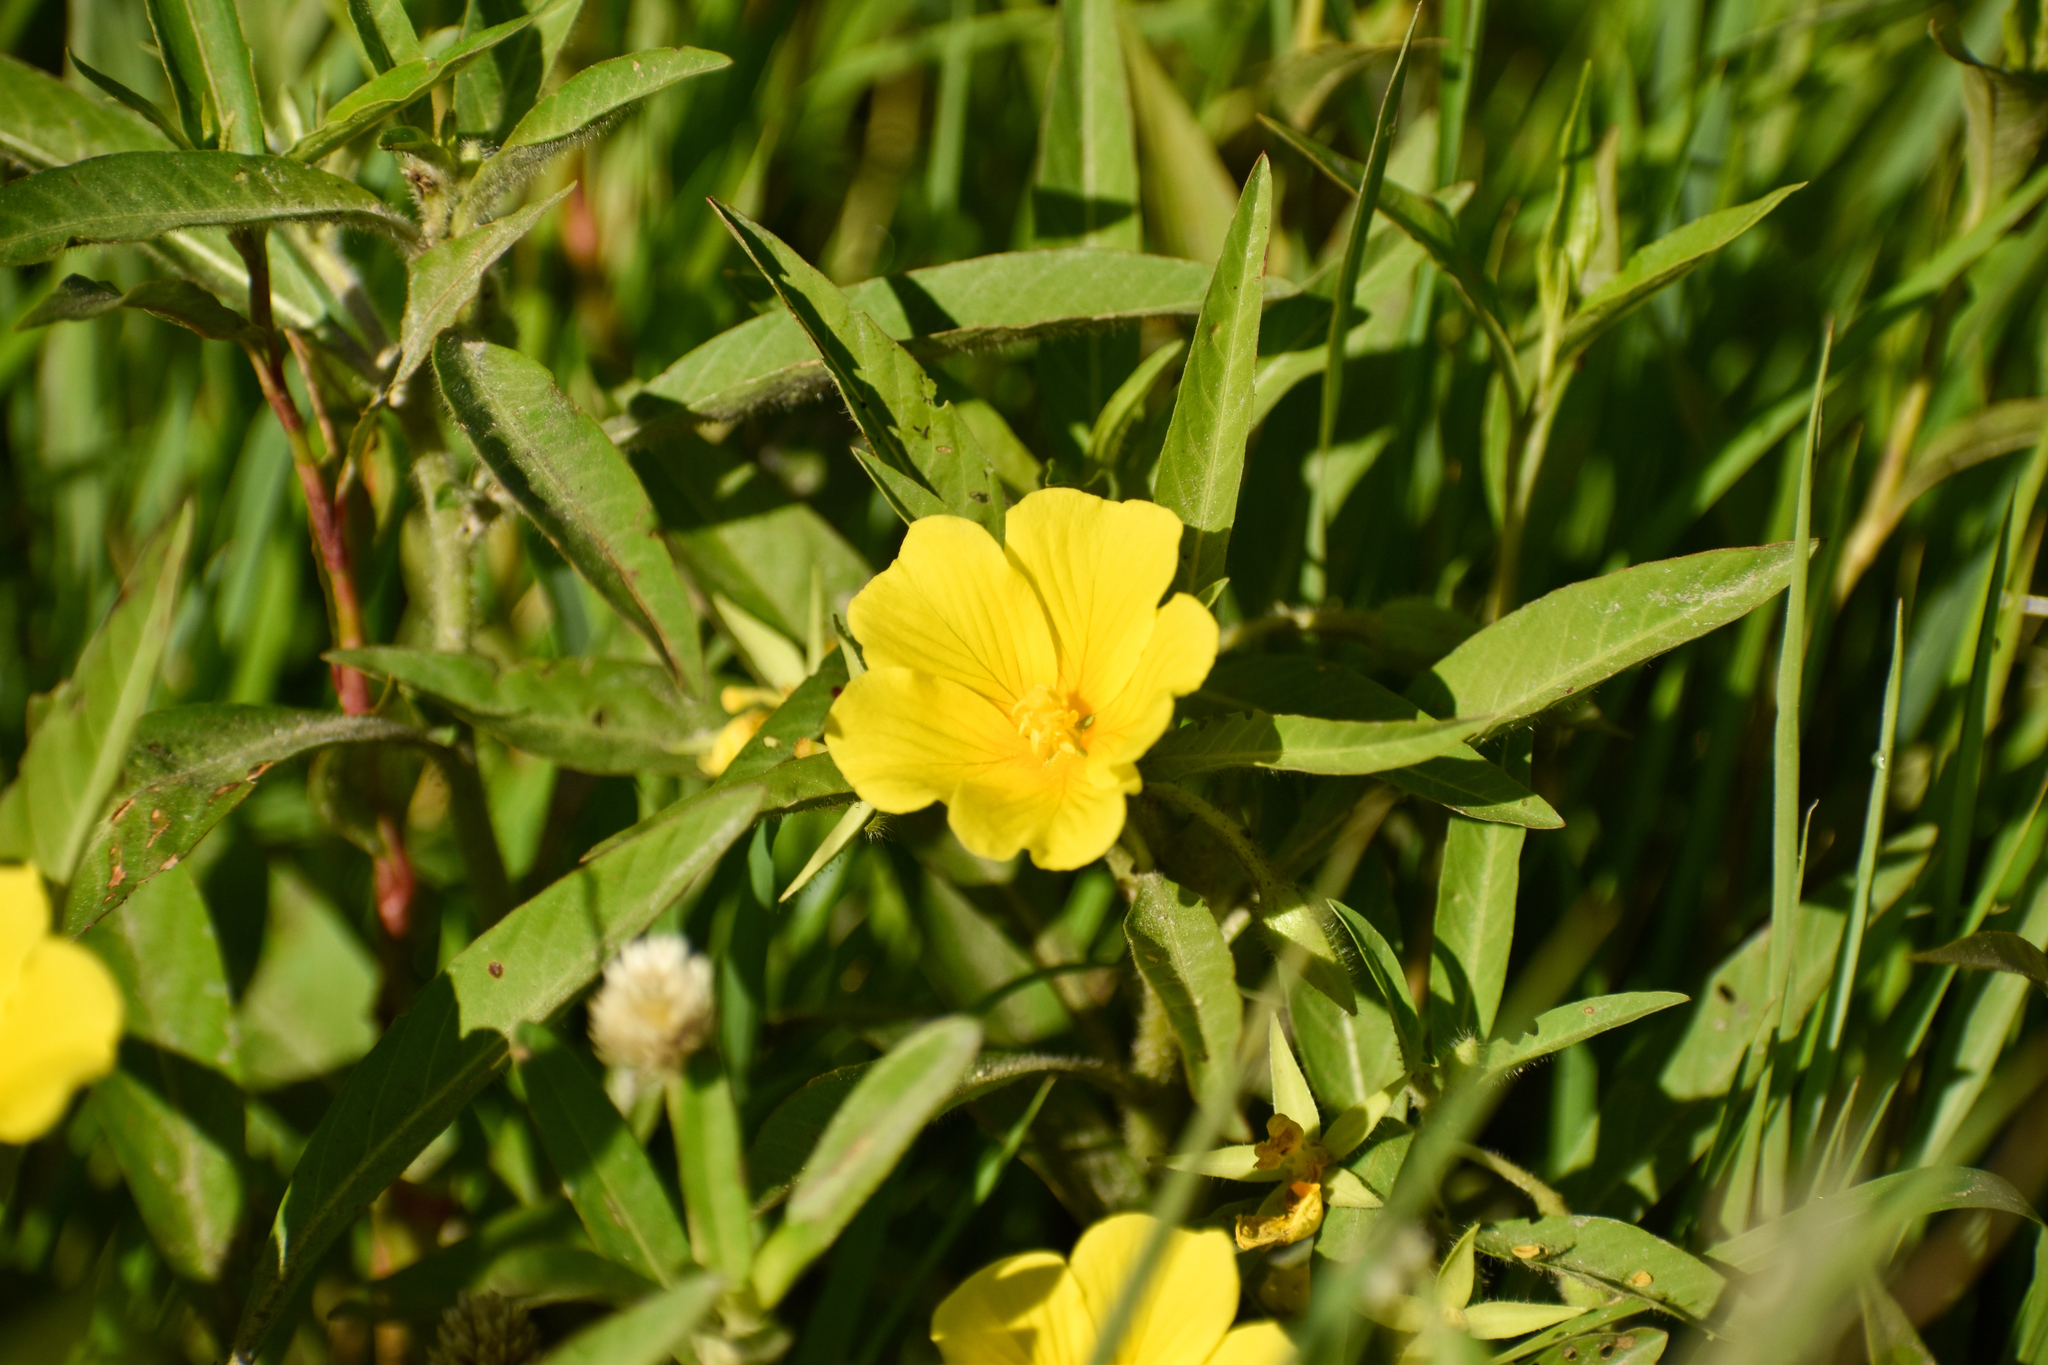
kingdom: Plantae
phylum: Tracheophyta
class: Magnoliopsida
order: Myrtales
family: Onagraceae
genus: Ludwigia
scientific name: Ludwigia peploides
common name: Floating primrose-willow
